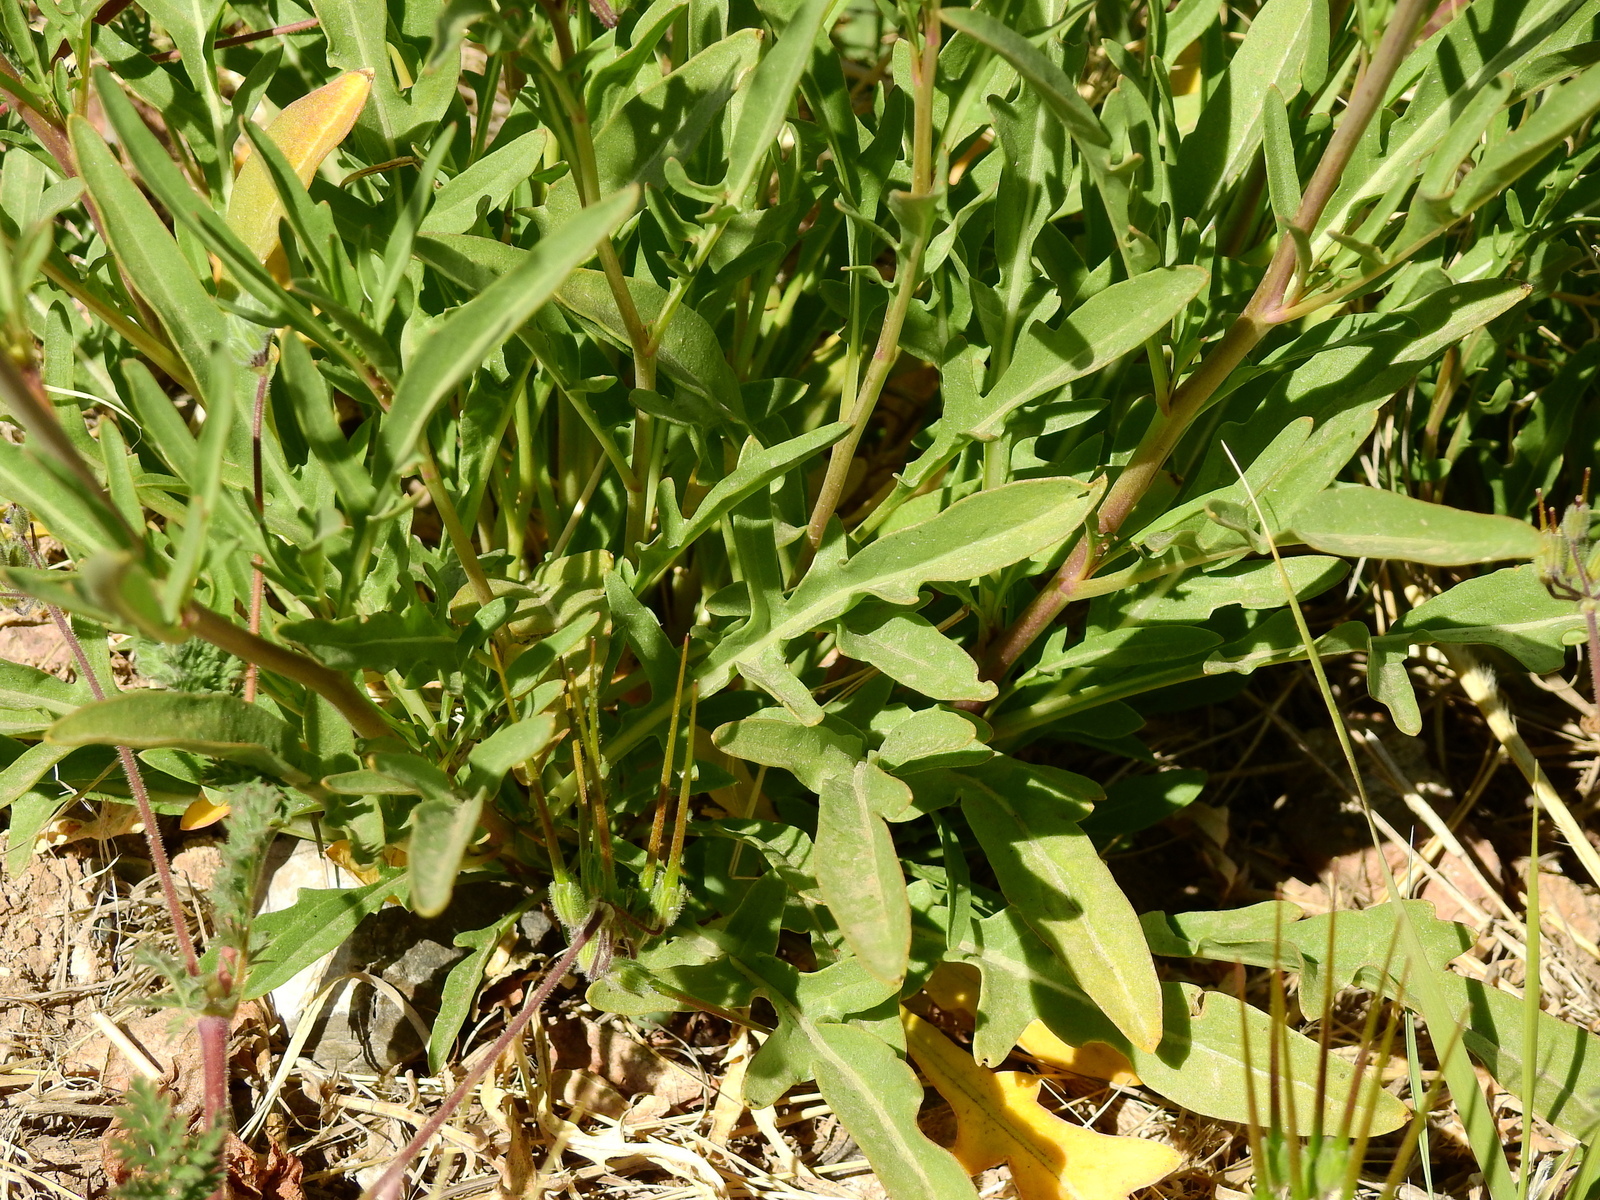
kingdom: Plantae
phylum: Tracheophyta
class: Magnoliopsida
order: Brassicales
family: Brassicaceae
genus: Diplotaxis
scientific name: Diplotaxis tenuifolia
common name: Perennial wall-rocket
